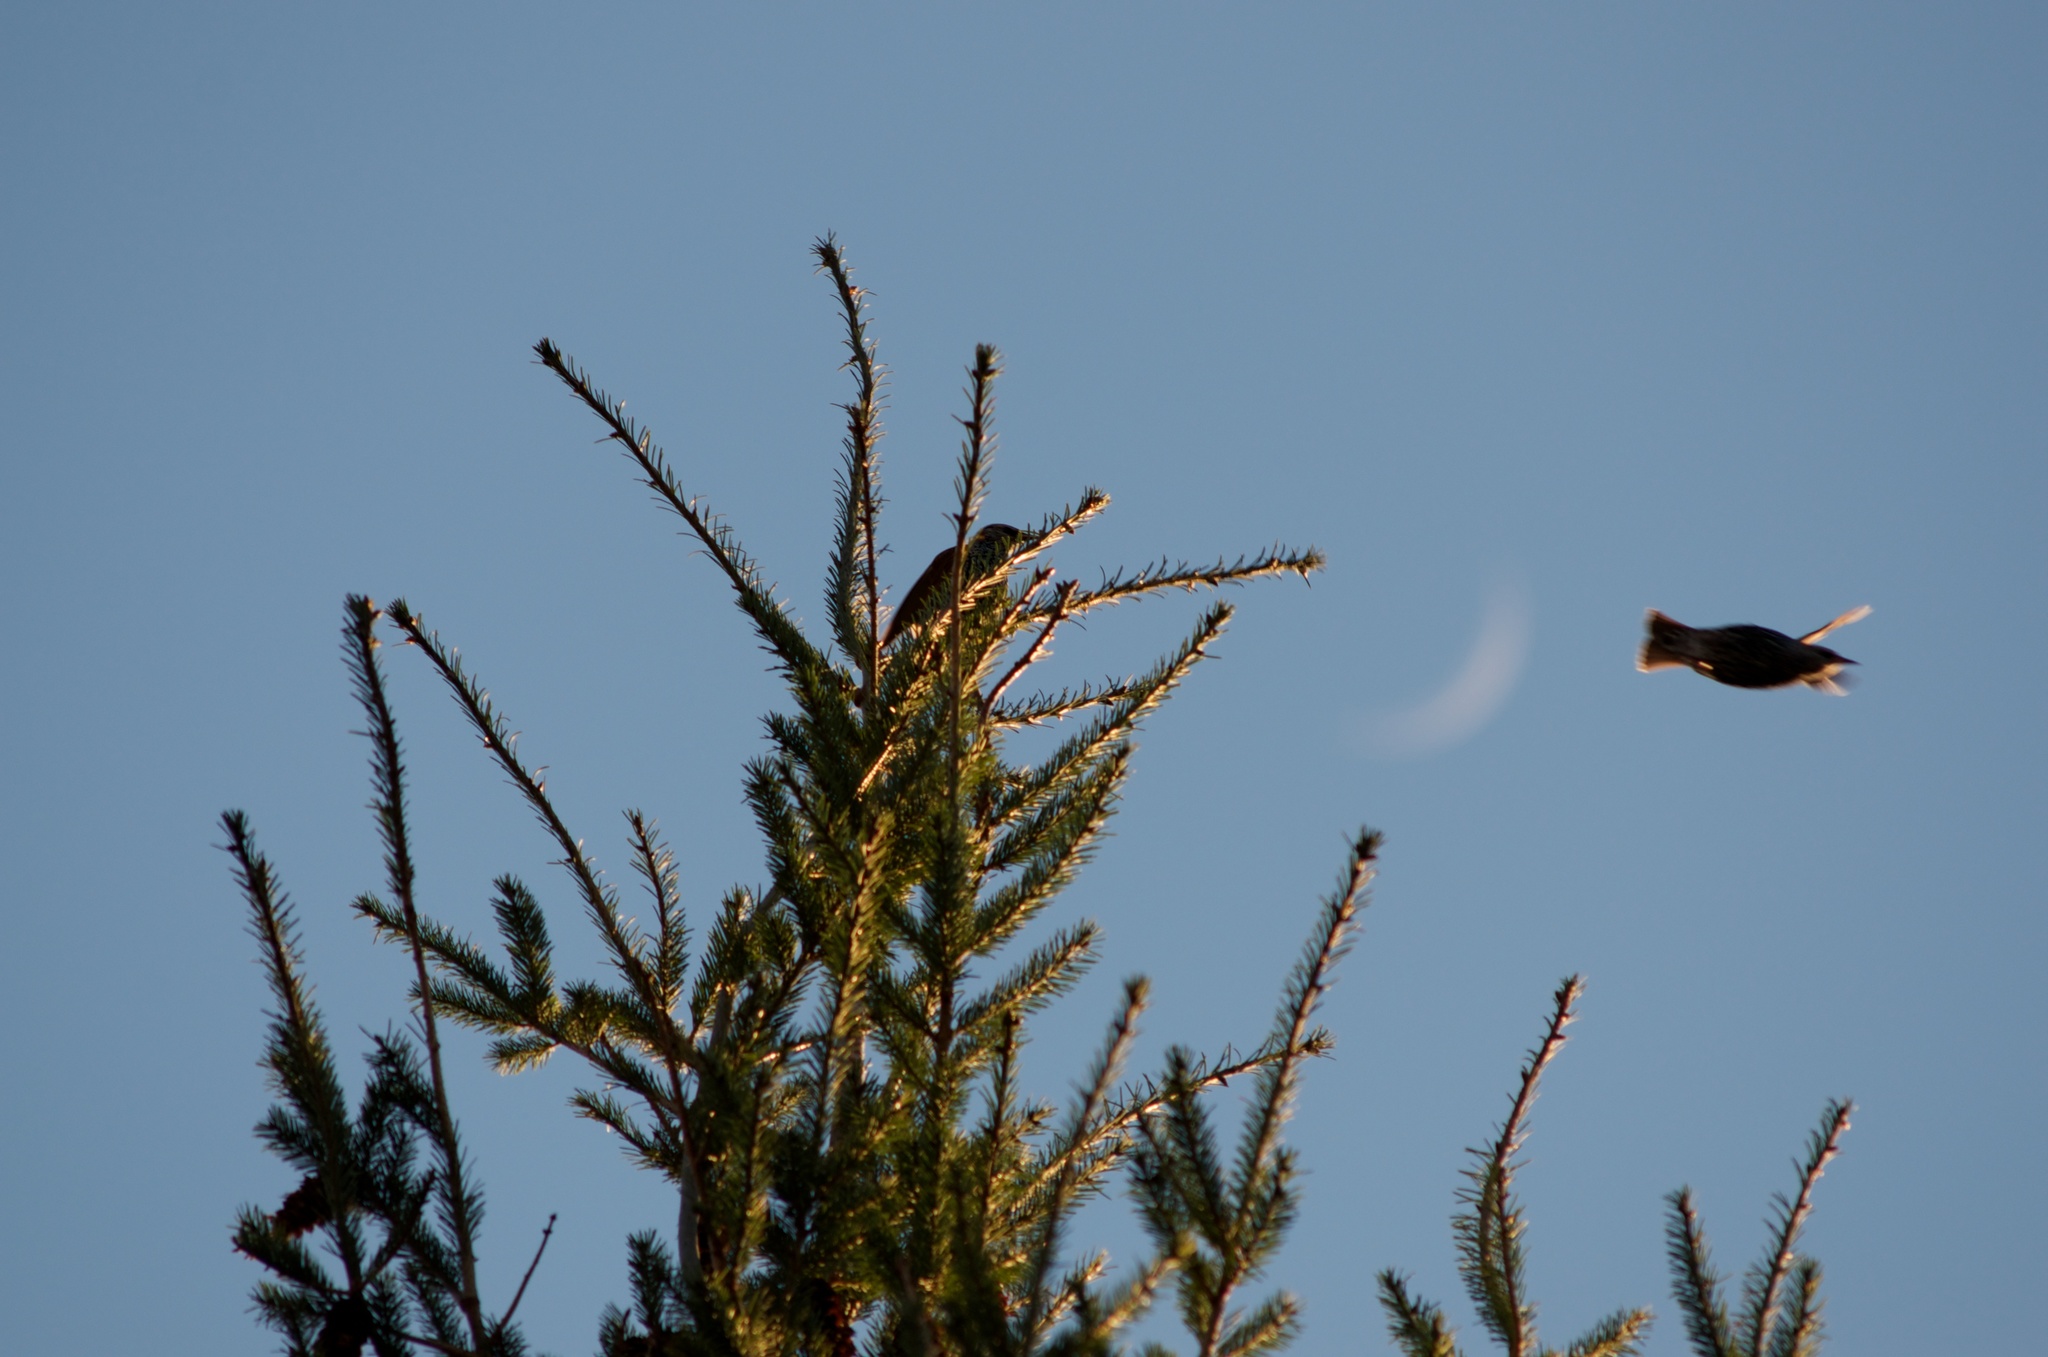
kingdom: Animalia
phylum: Chordata
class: Aves
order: Passeriformes
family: Sturnidae
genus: Sturnus
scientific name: Sturnus vulgaris
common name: Common starling
